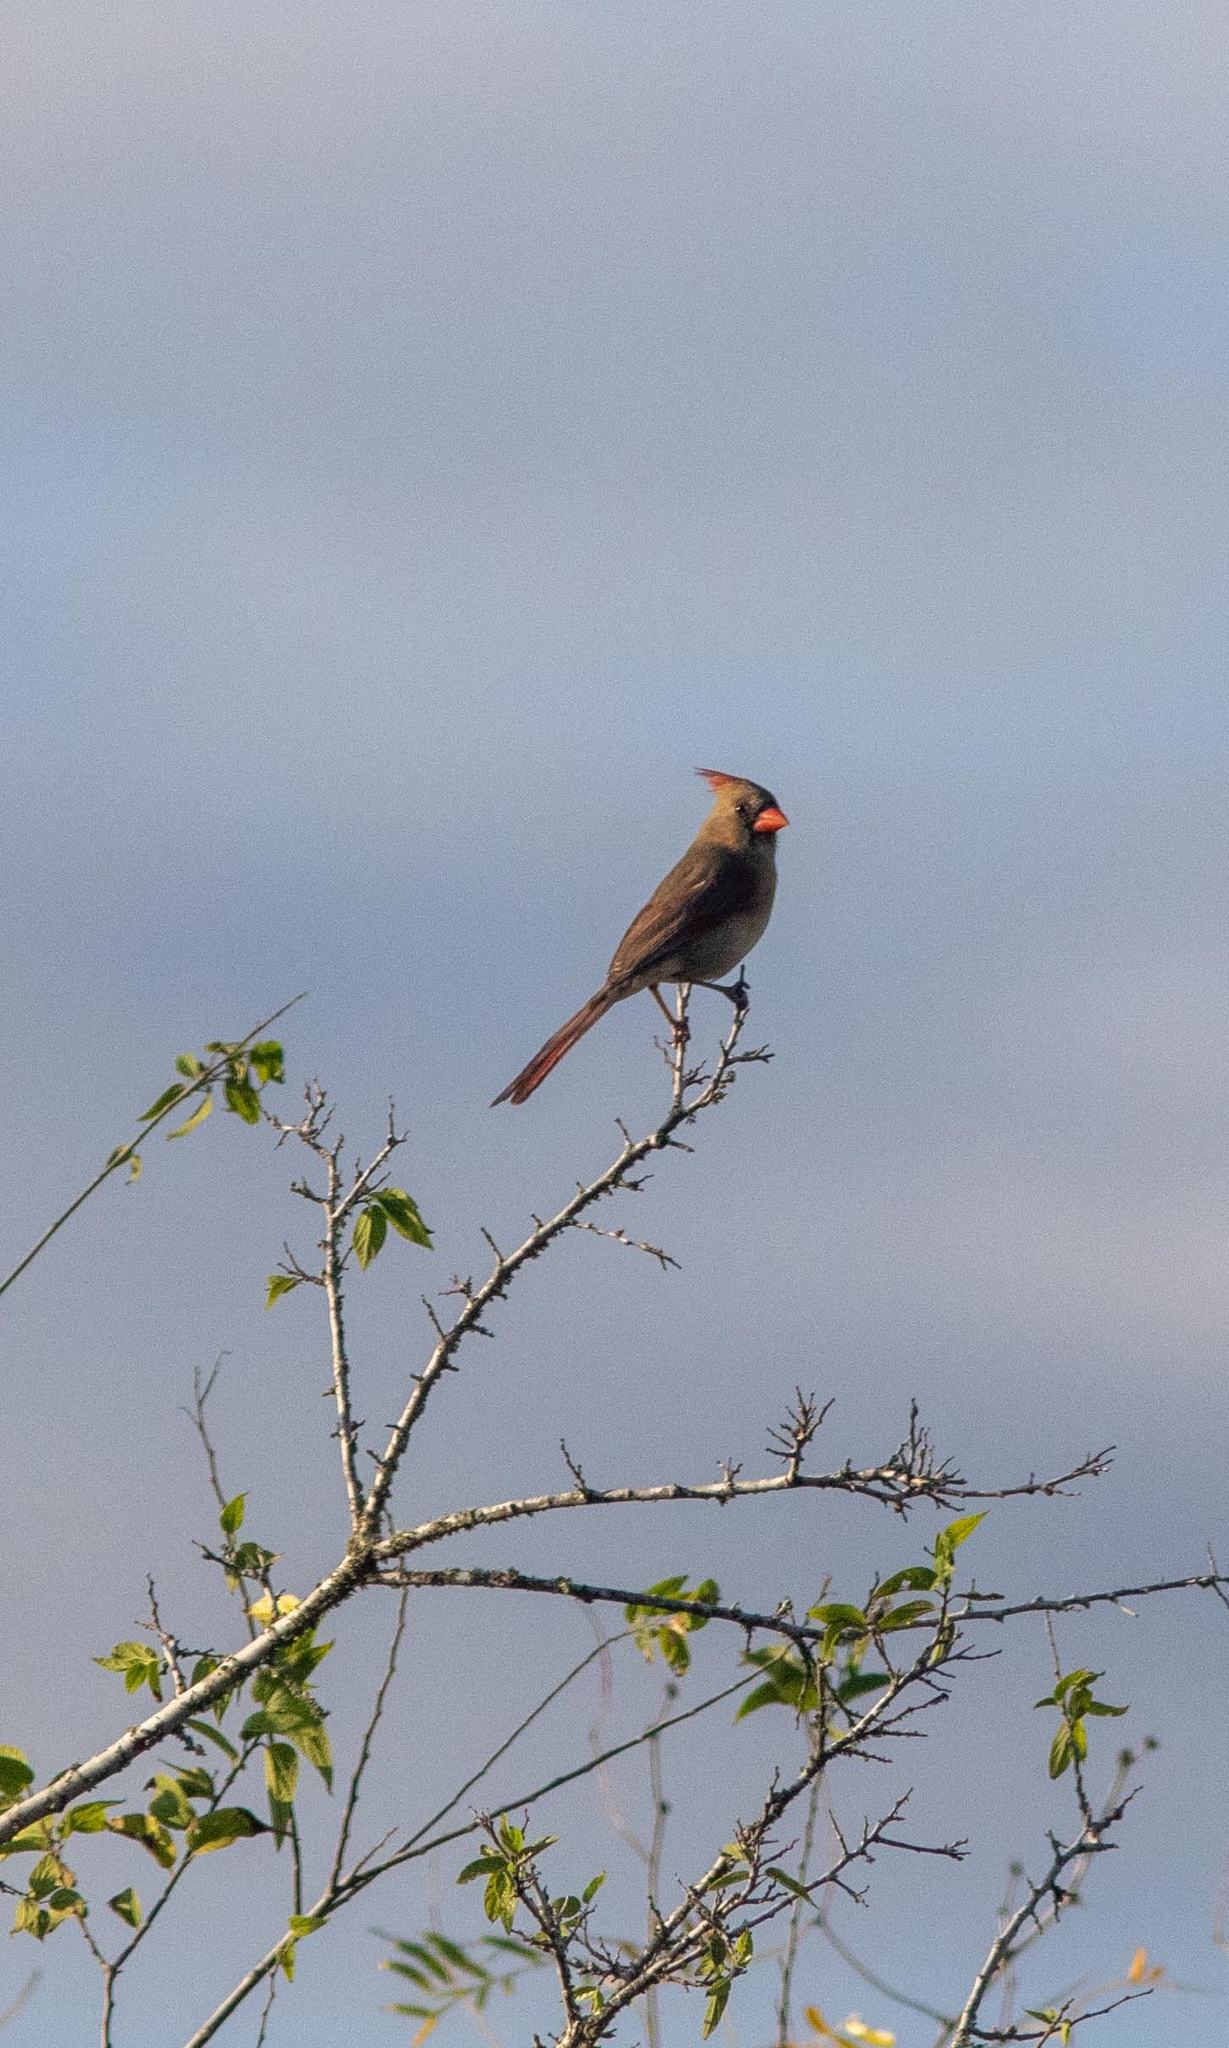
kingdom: Animalia
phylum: Chordata
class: Aves
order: Passeriformes
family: Cardinalidae
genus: Cardinalis
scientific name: Cardinalis cardinalis
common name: Northern cardinal
